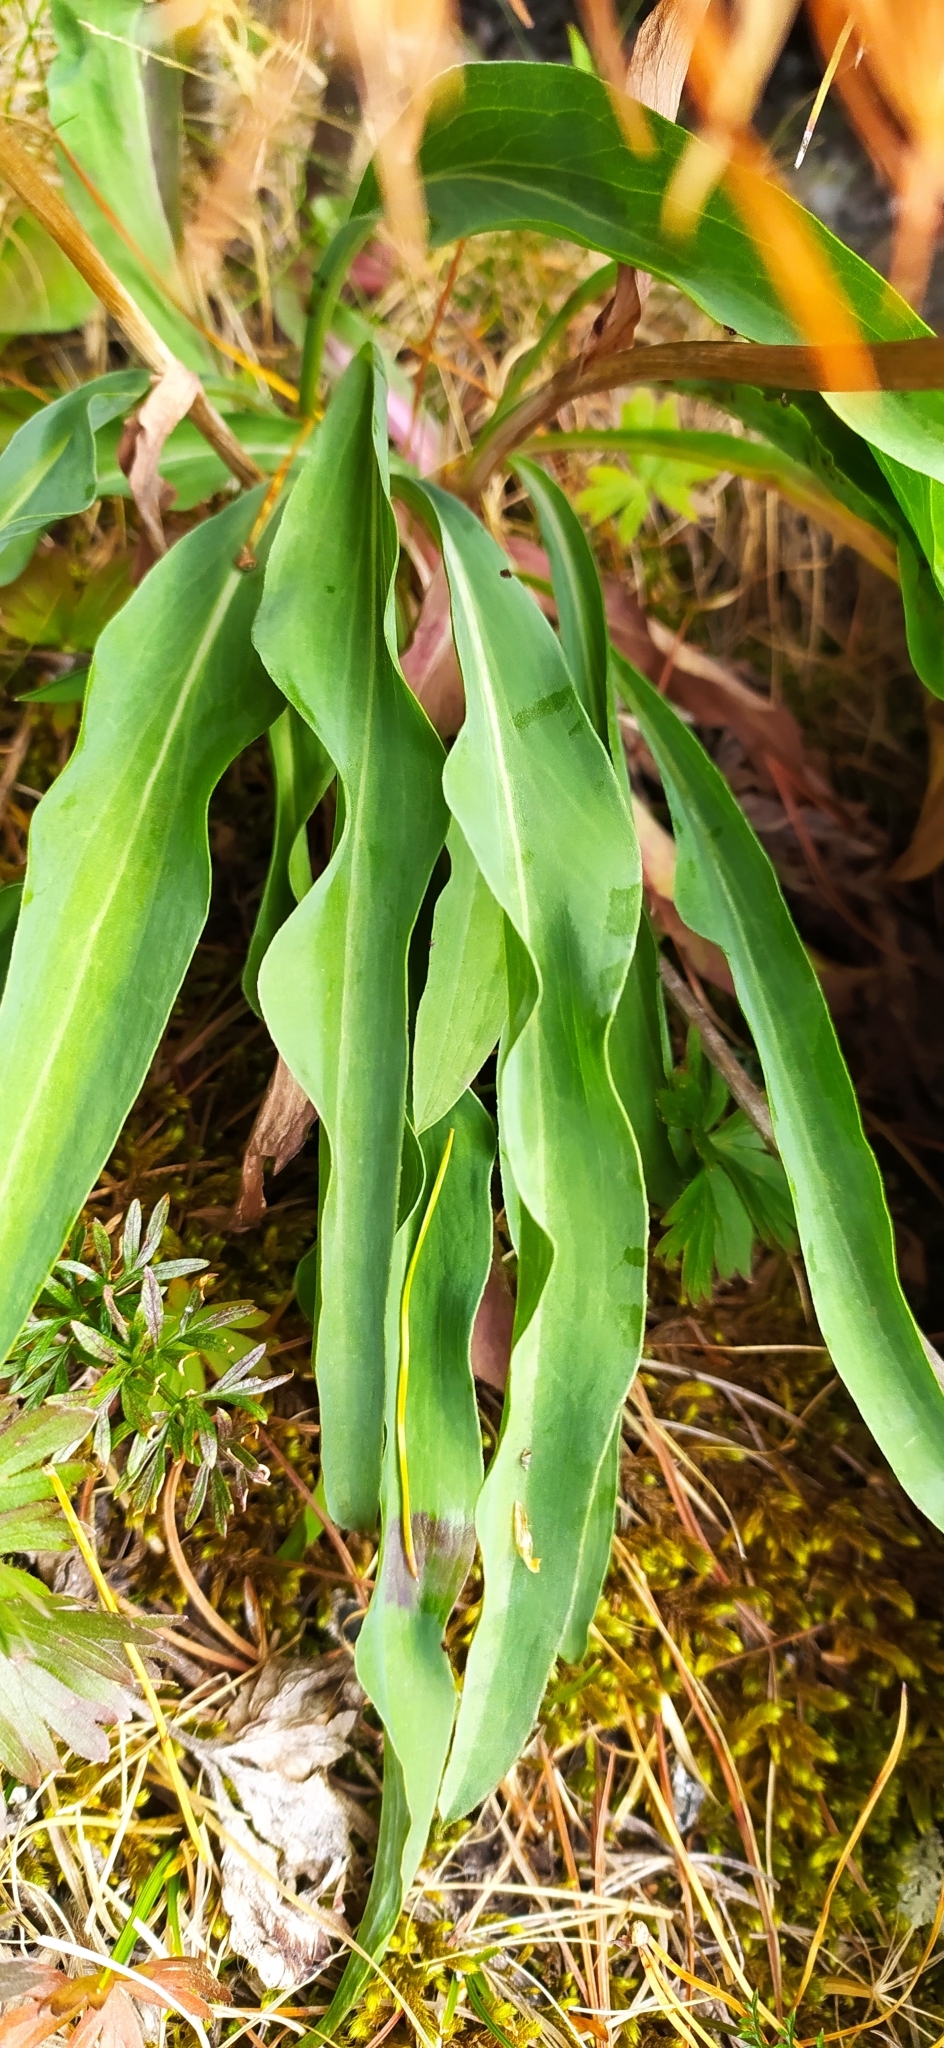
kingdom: Plantae
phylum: Tracheophyta
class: Magnoliopsida
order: Asterales
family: Asteraceae
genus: Scorzonera
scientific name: Scorzonera glabra
